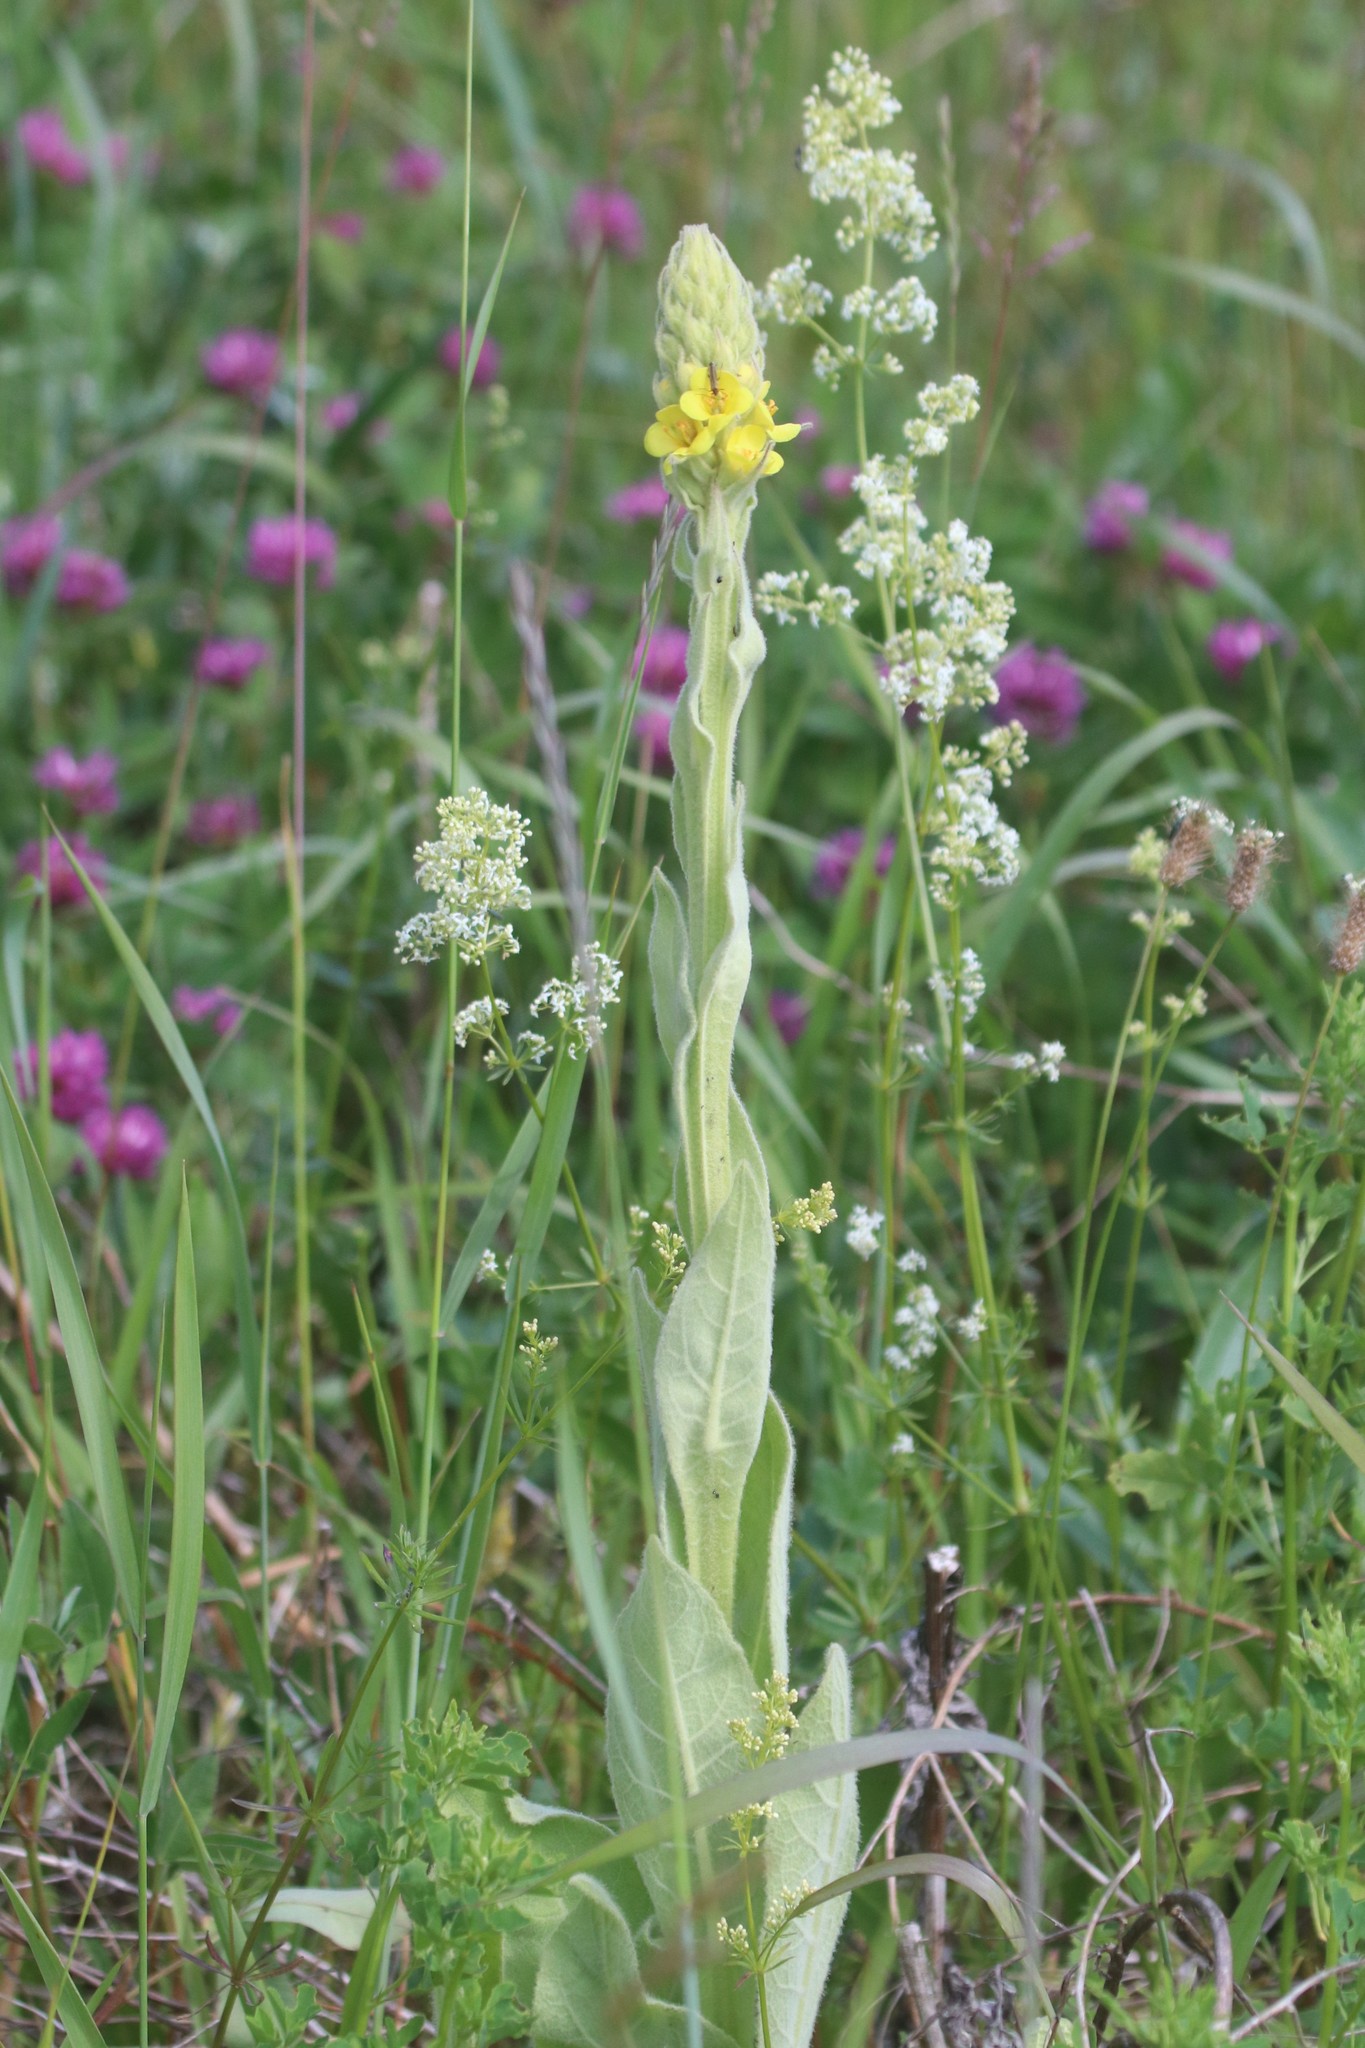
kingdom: Plantae
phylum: Tracheophyta
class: Magnoliopsida
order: Lamiales
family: Scrophulariaceae
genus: Verbascum
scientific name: Verbascum thapsus
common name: Common mullein
